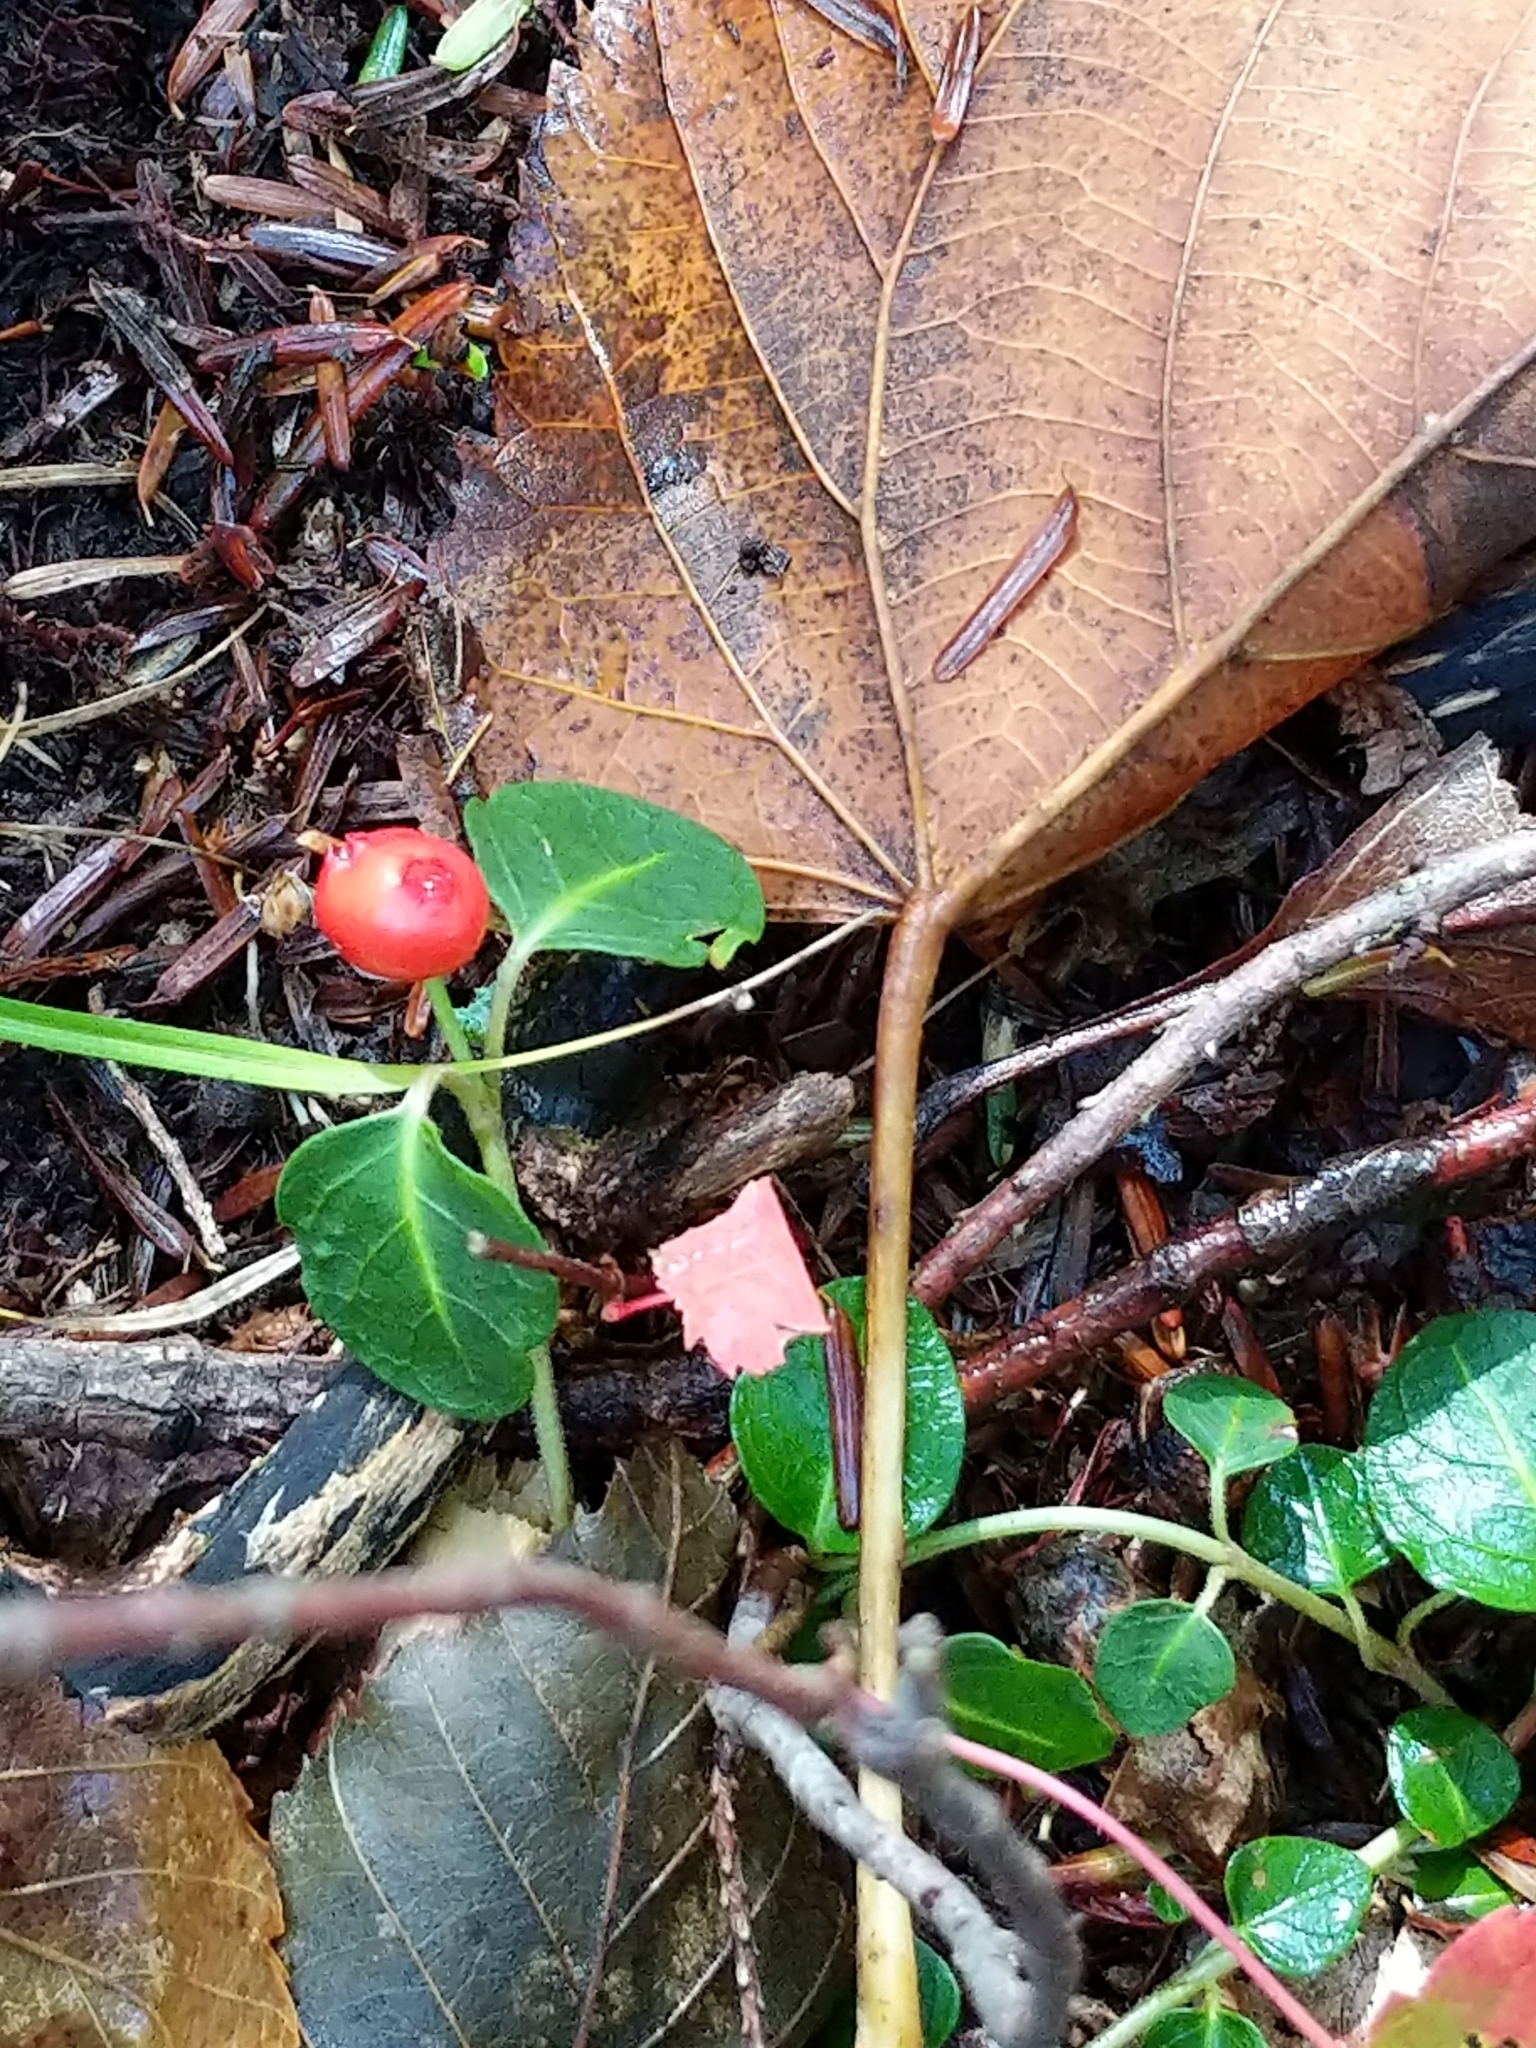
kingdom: Plantae
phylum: Tracheophyta
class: Magnoliopsida
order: Gentianales
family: Rubiaceae
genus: Mitchella
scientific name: Mitchella repens
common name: Partridge-berry
